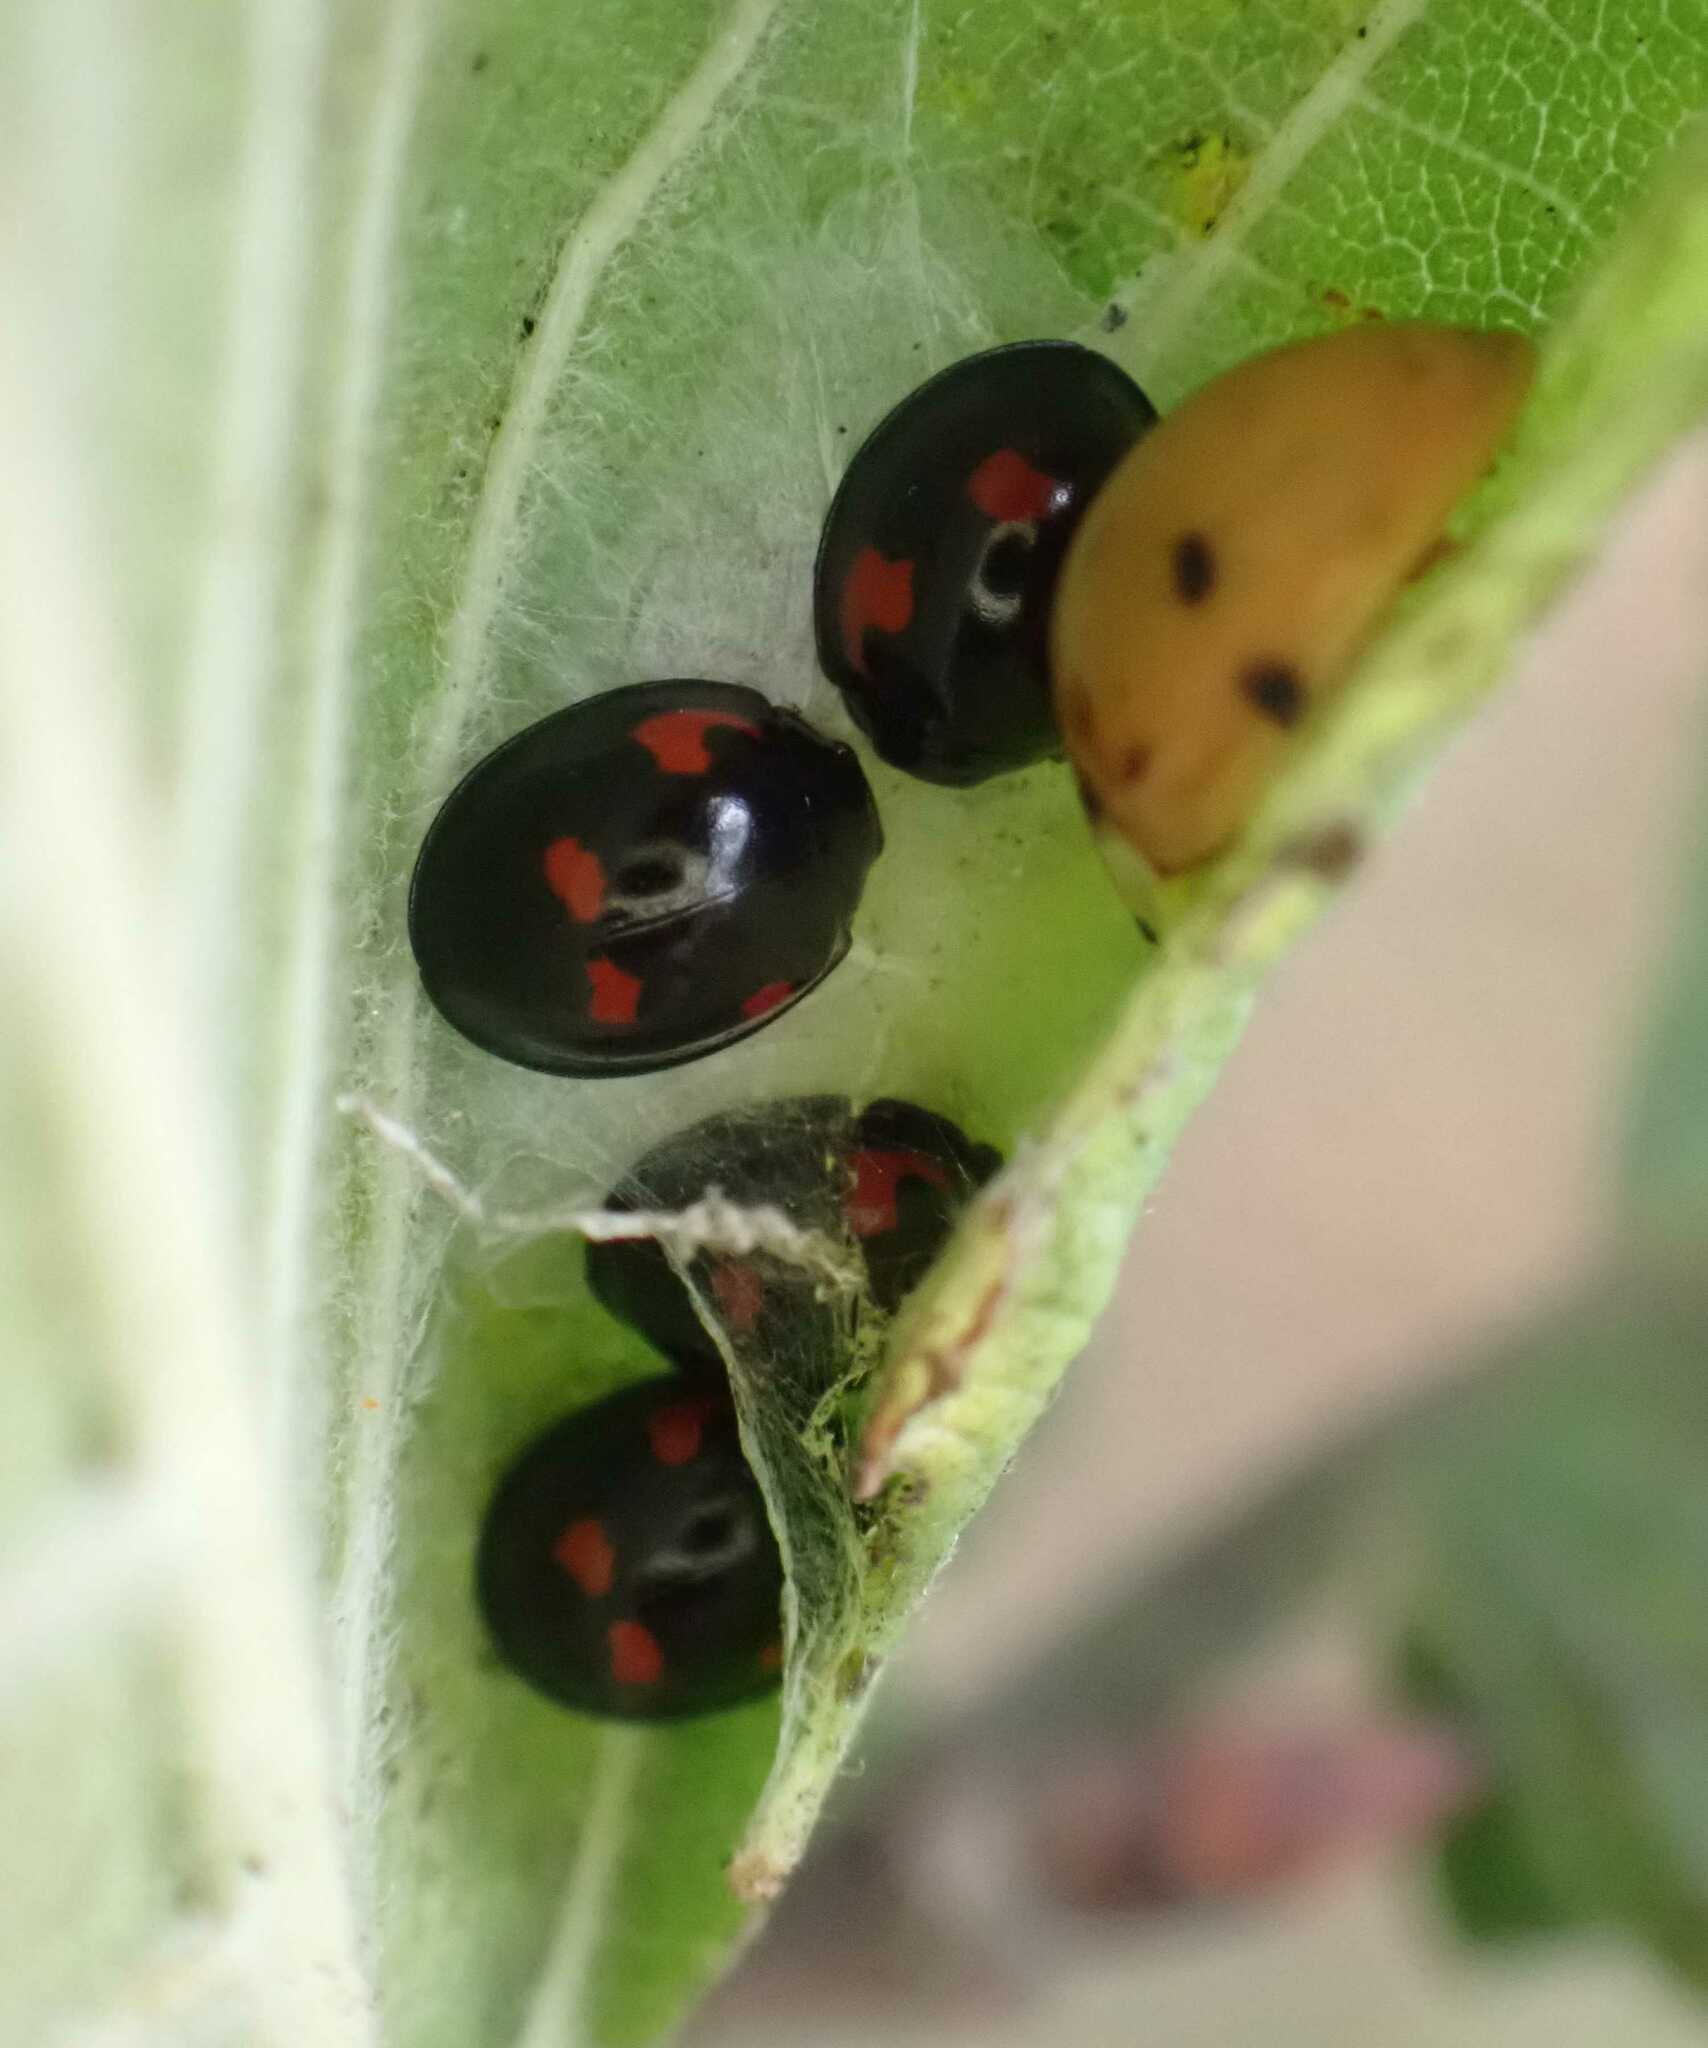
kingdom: Animalia
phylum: Arthropoda
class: Insecta
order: Coleoptera
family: Coccinellidae
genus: Brumus
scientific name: Brumus quadripustulatus
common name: Ladybird beetle
